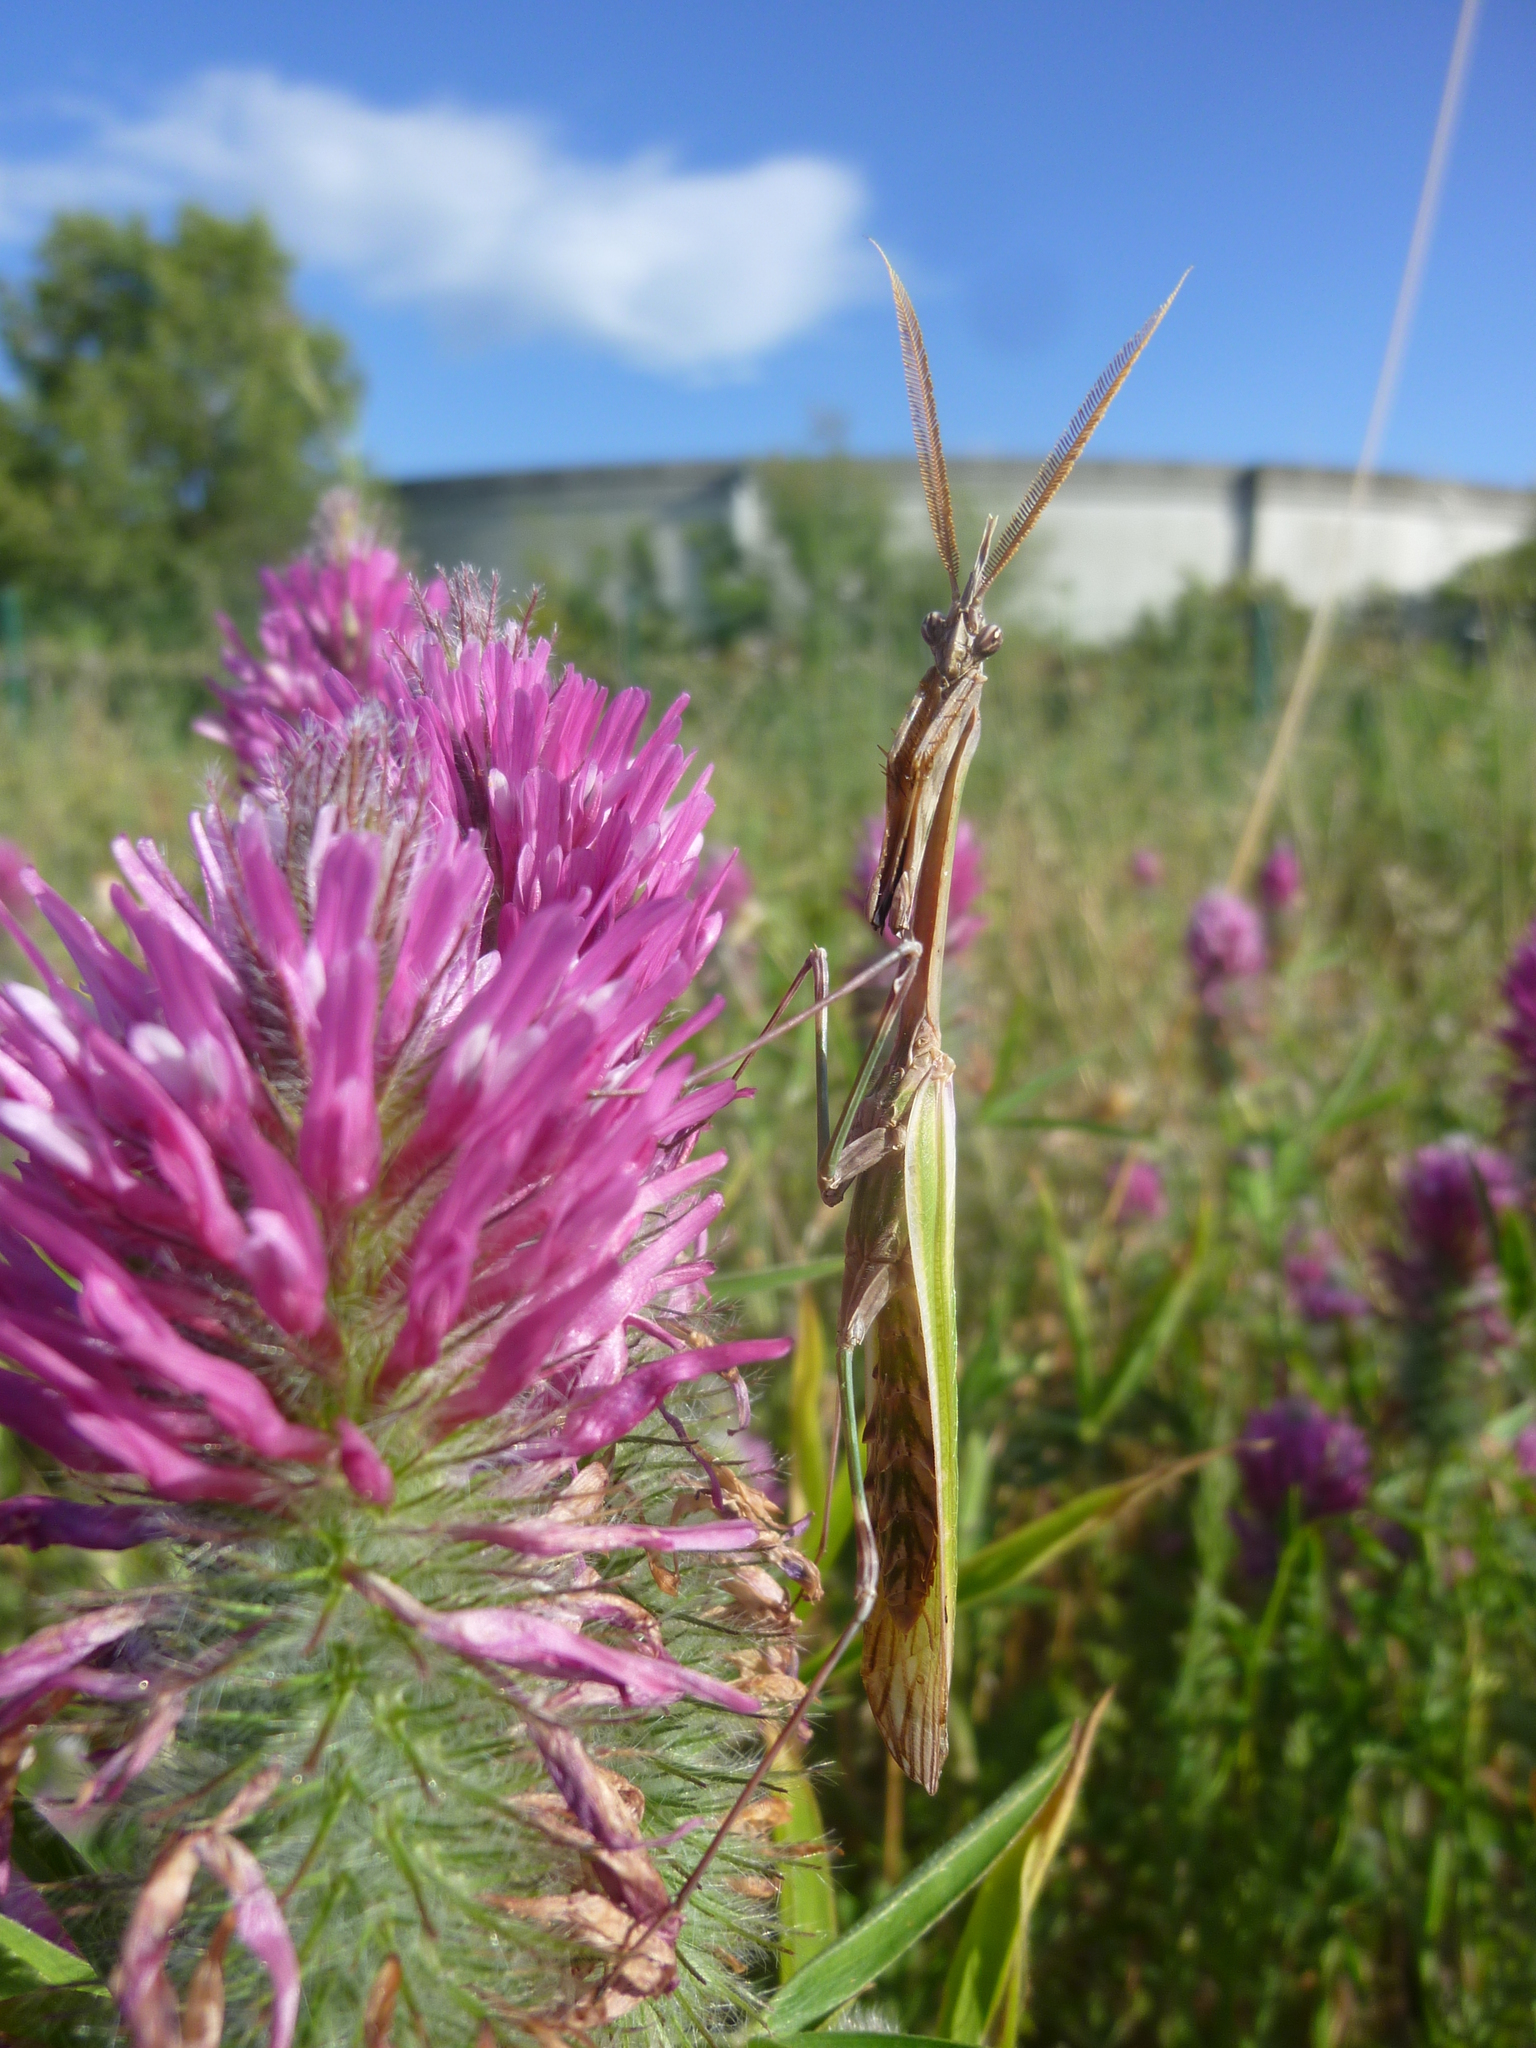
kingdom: Animalia
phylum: Arthropoda
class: Insecta
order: Mantodea
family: Empusidae
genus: Empusa
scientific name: Empusa pennata
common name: Conehead mantis
